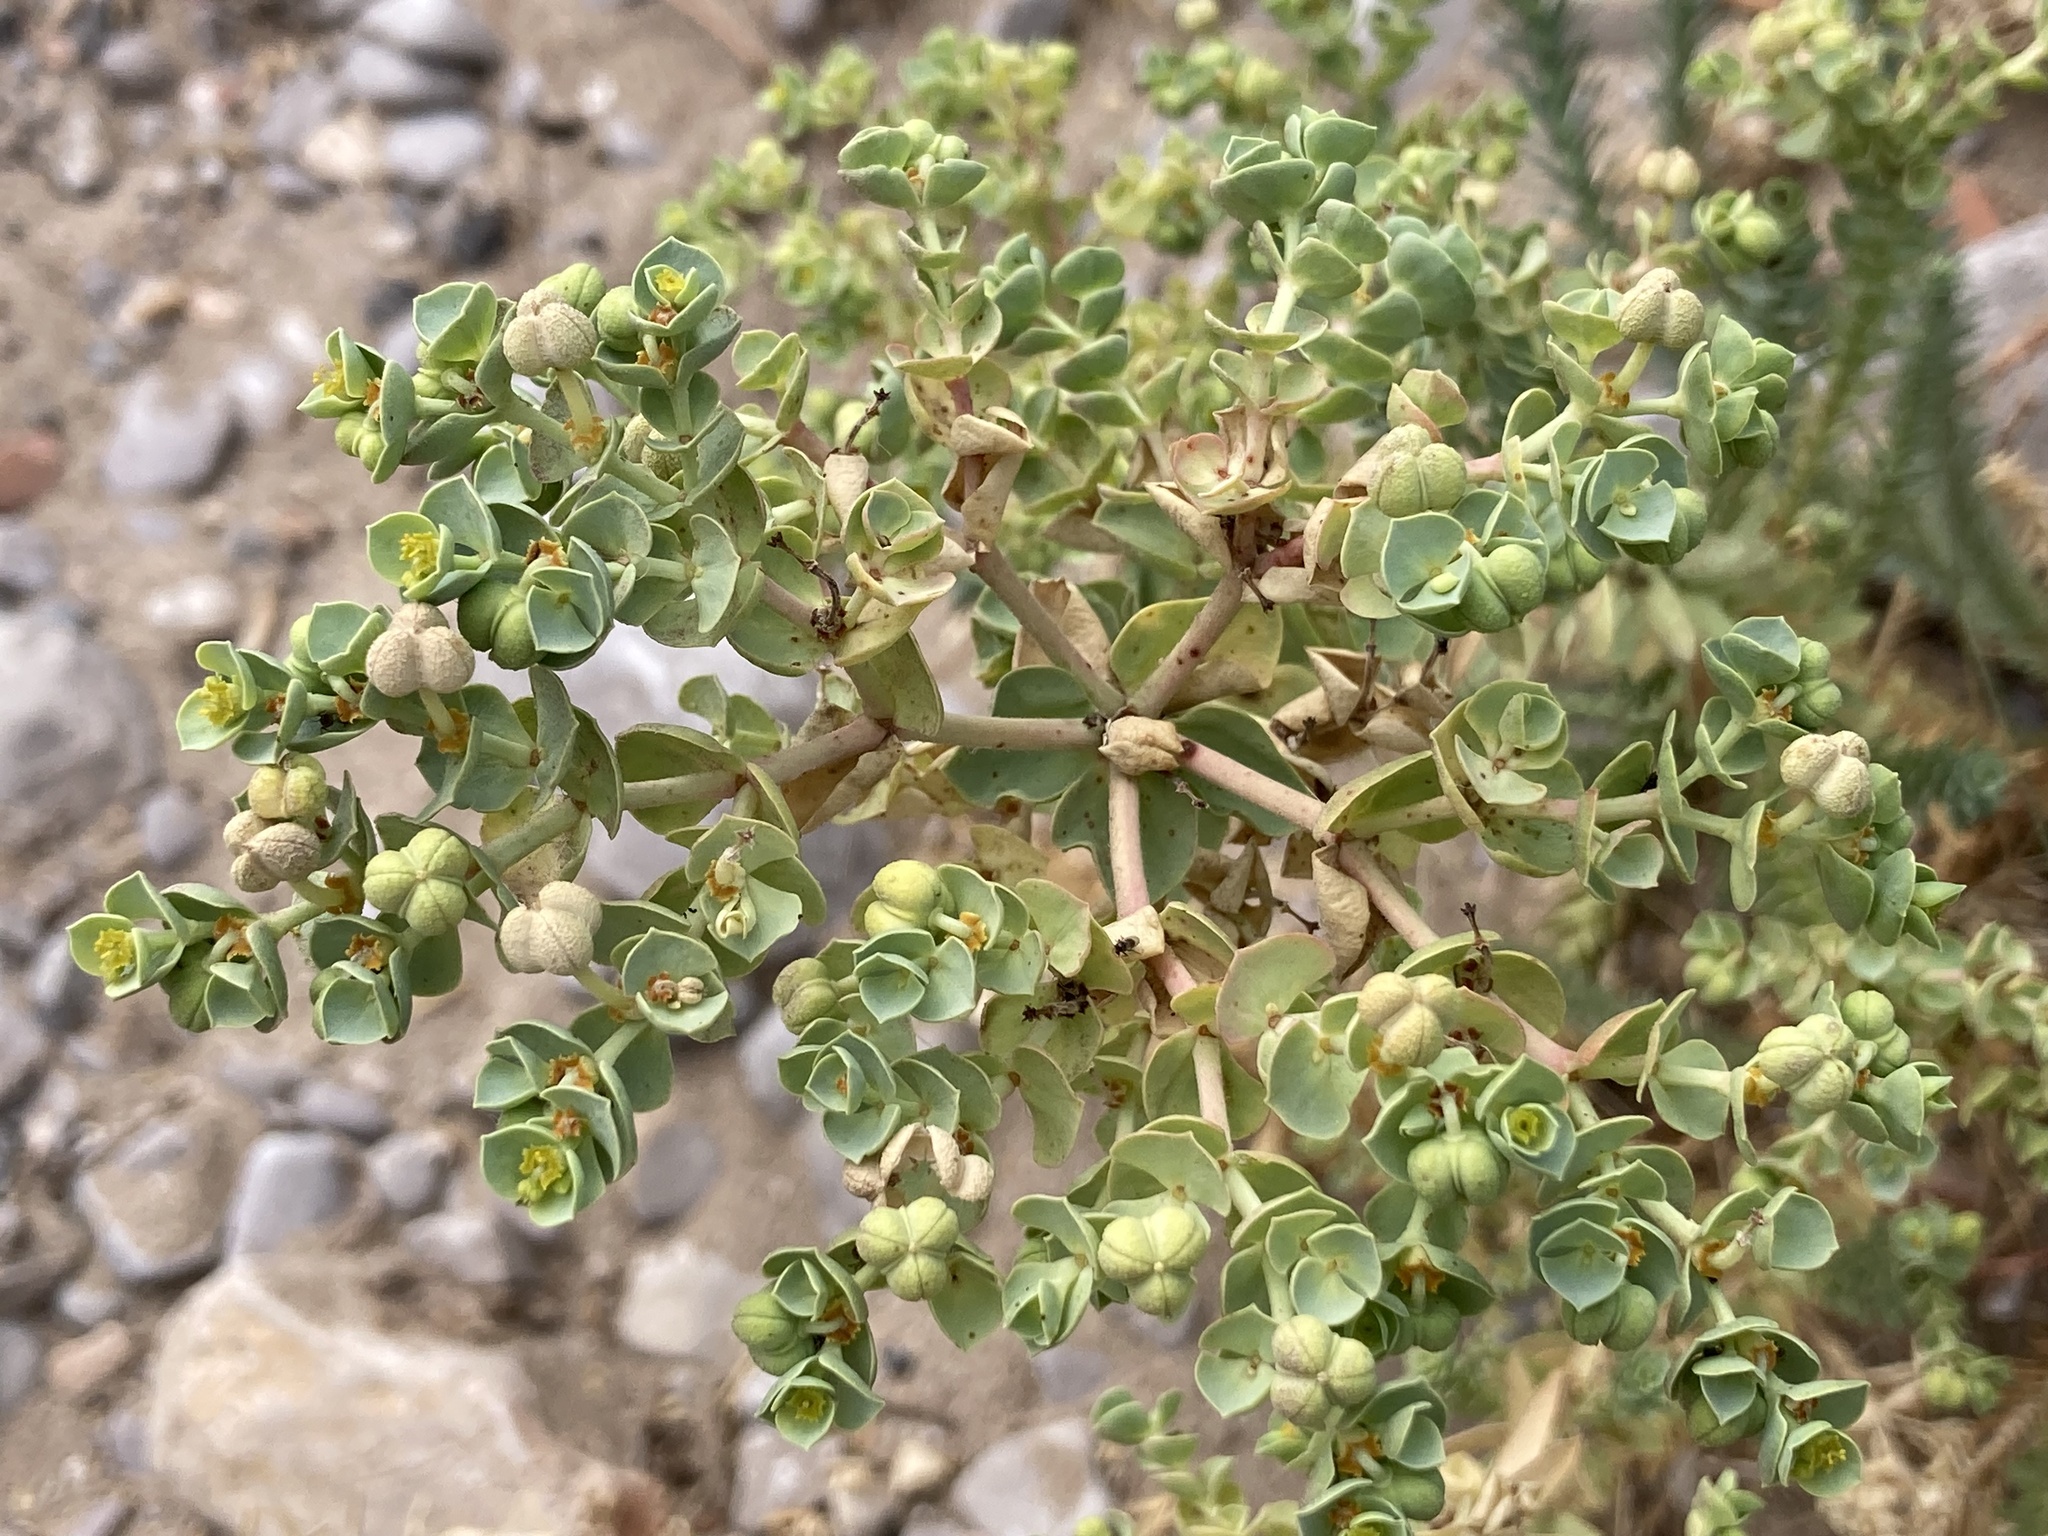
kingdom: Plantae
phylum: Tracheophyta
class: Magnoliopsida
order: Malpighiales
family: Euphorbiaceae
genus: Euphorbia
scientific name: Euphorbia paralias
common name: Sea spurge
